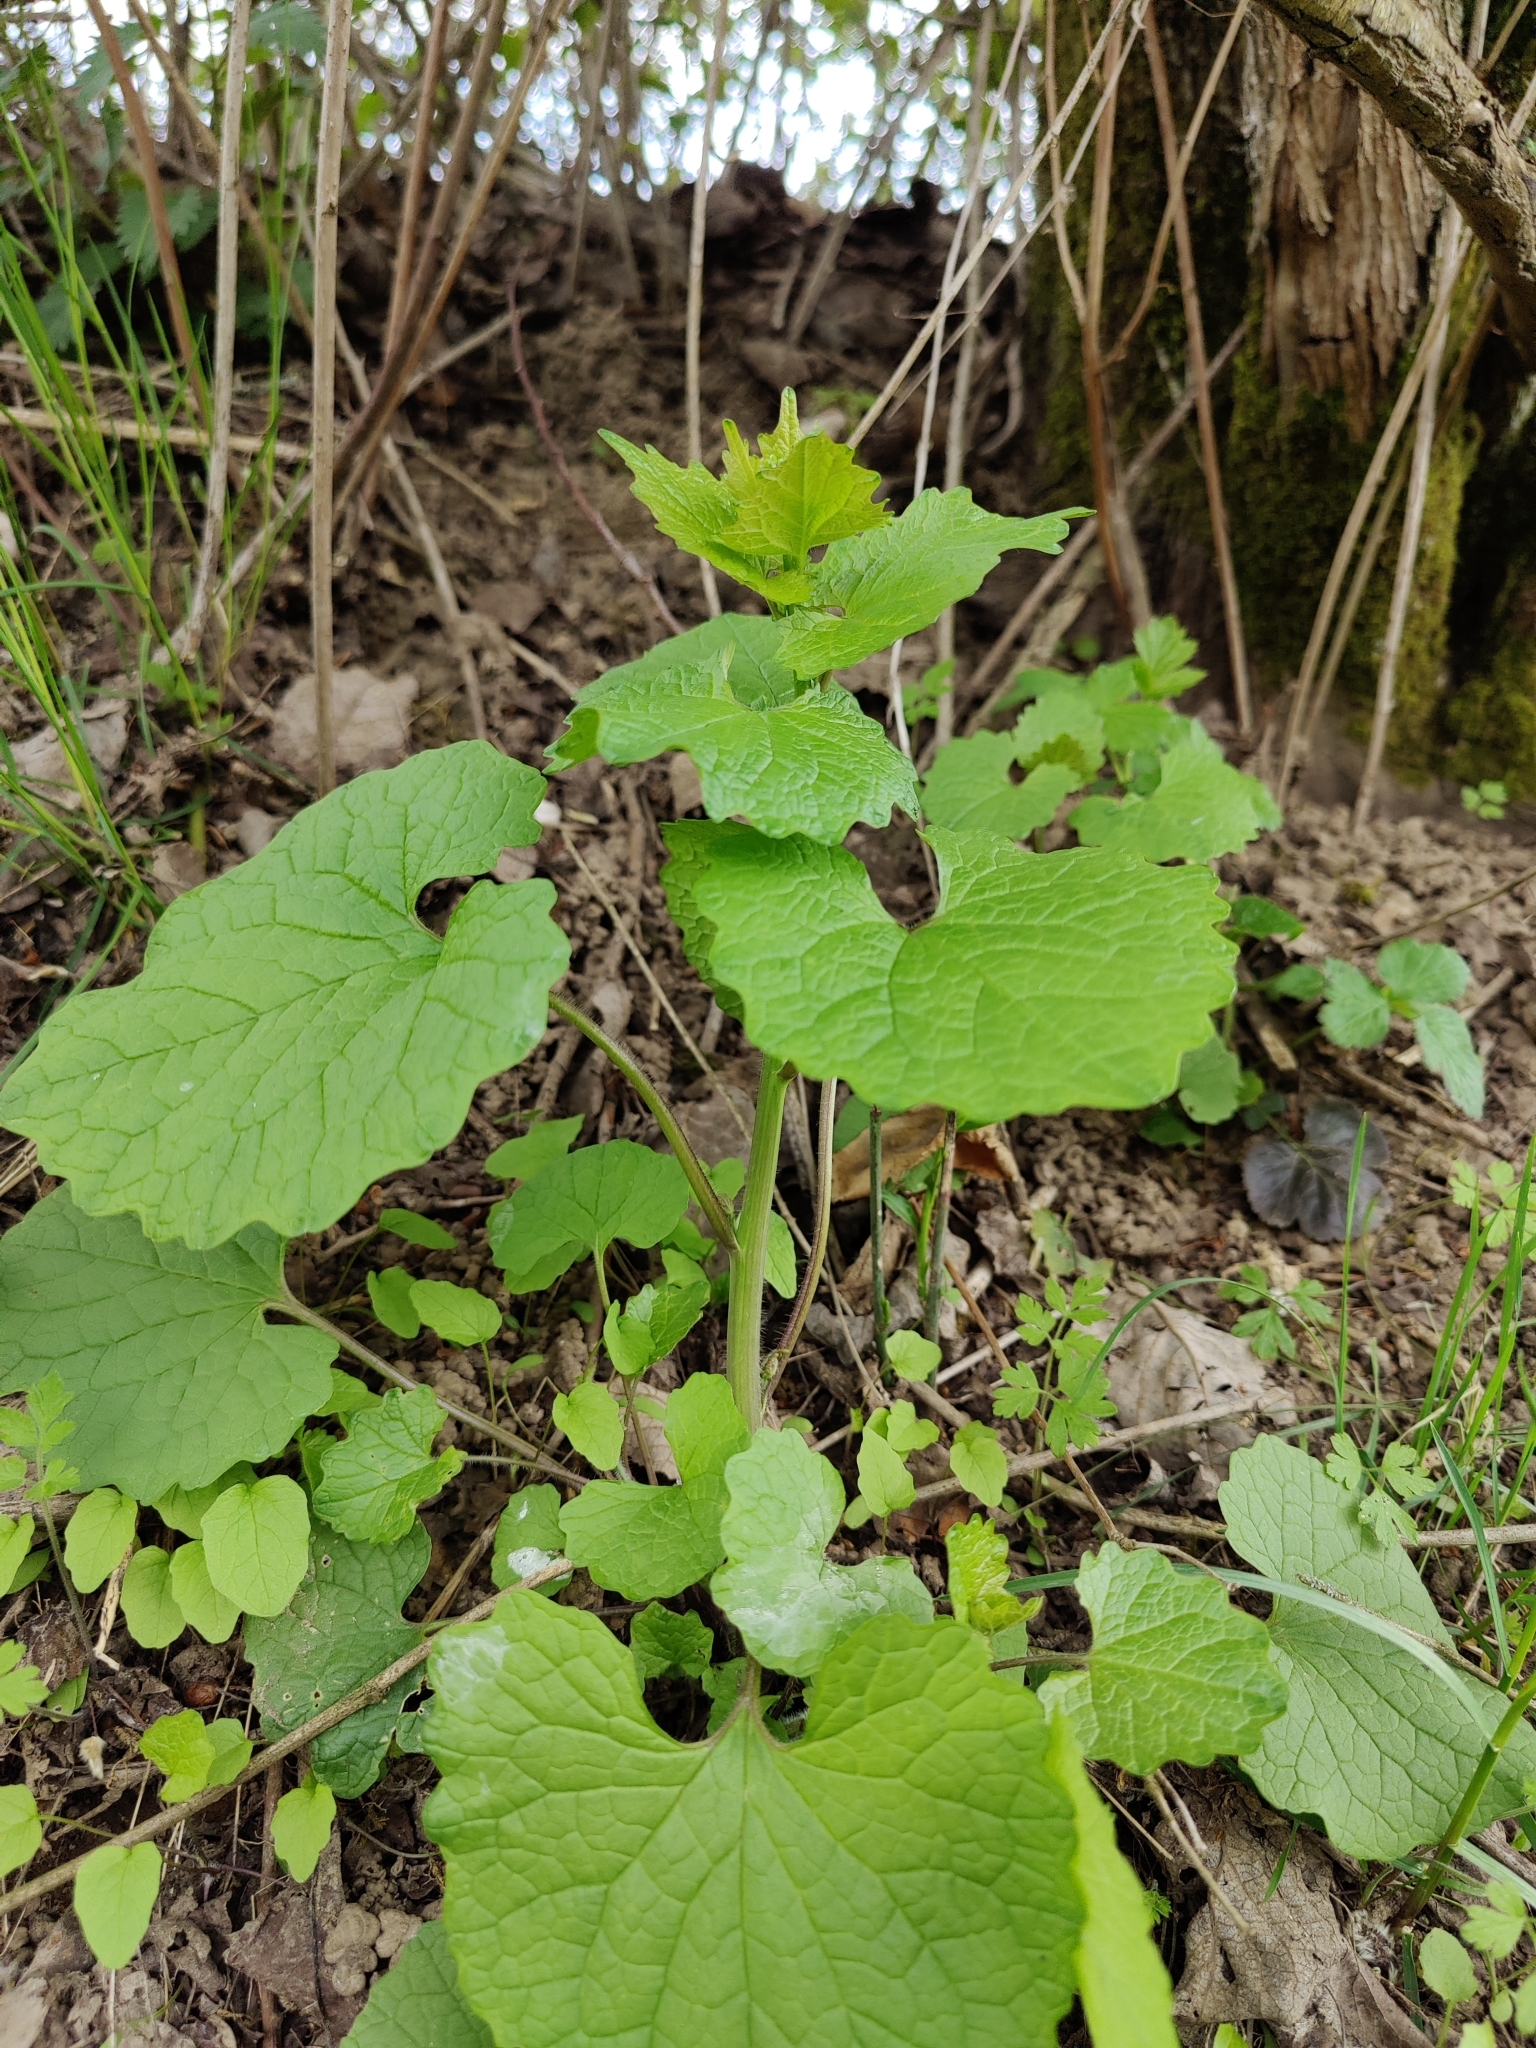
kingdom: Plantae
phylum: Tracheophyta
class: Magnoliopsida
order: Brassicales
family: Brassicaceae
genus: Alliaria
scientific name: Alliaria petiolata
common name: Garlic mustard
